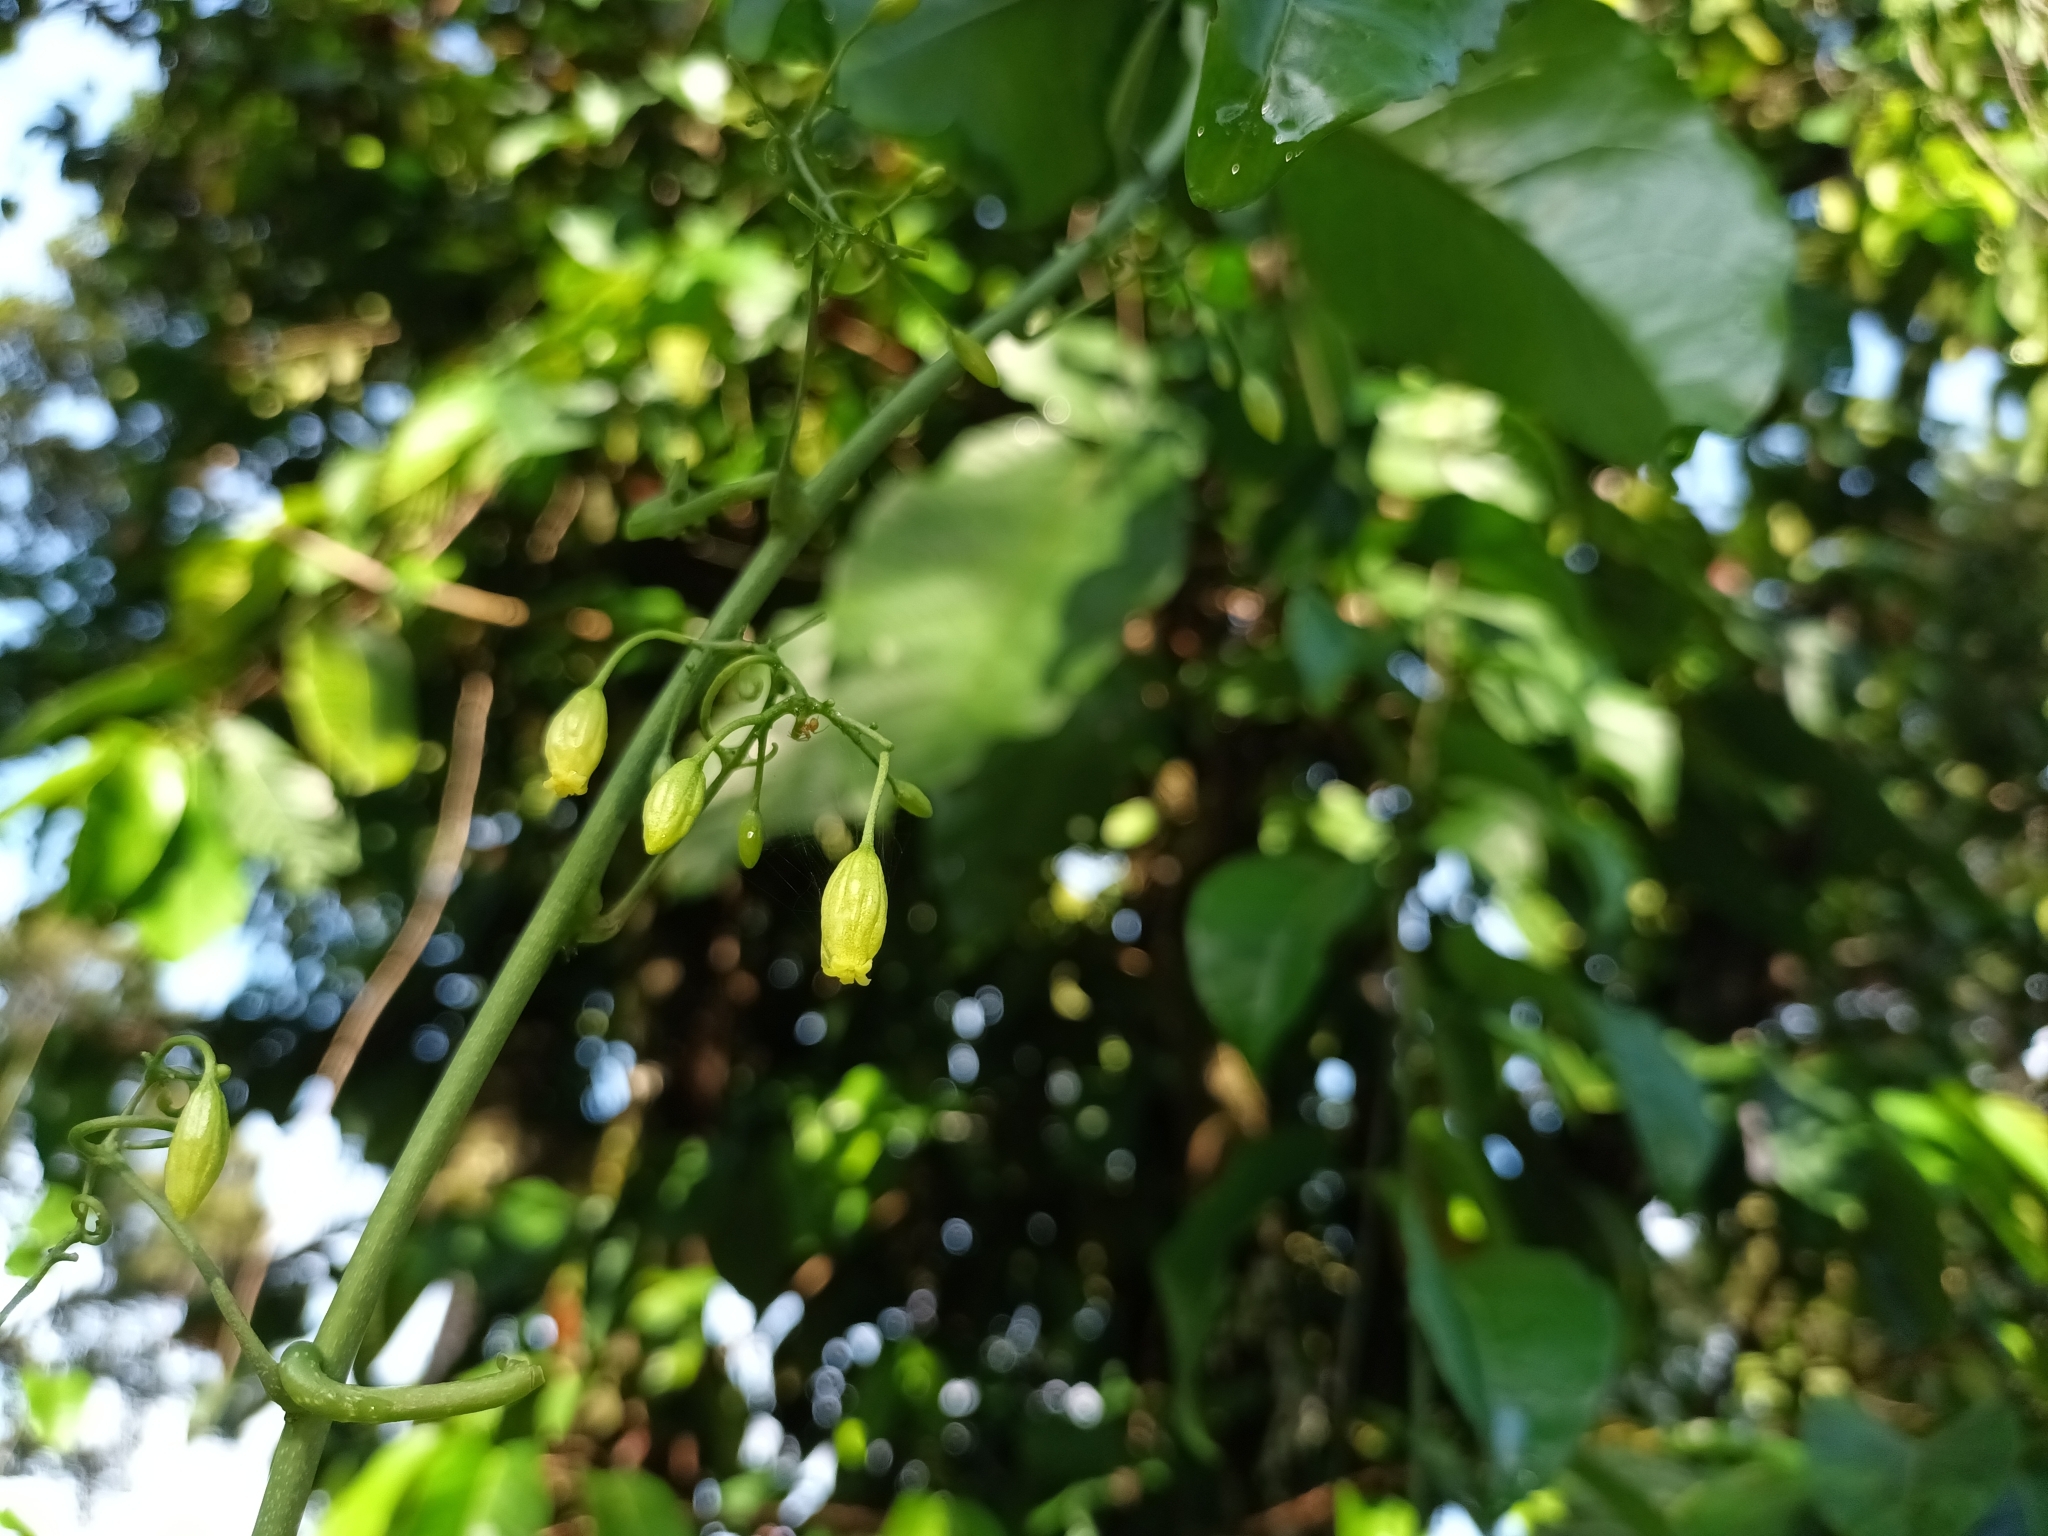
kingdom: Plantae
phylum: Tracheophyta
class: Magnoliopsida
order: Malpighiales
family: Passifloraceae
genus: Adenia
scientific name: Adenia heterophylla
